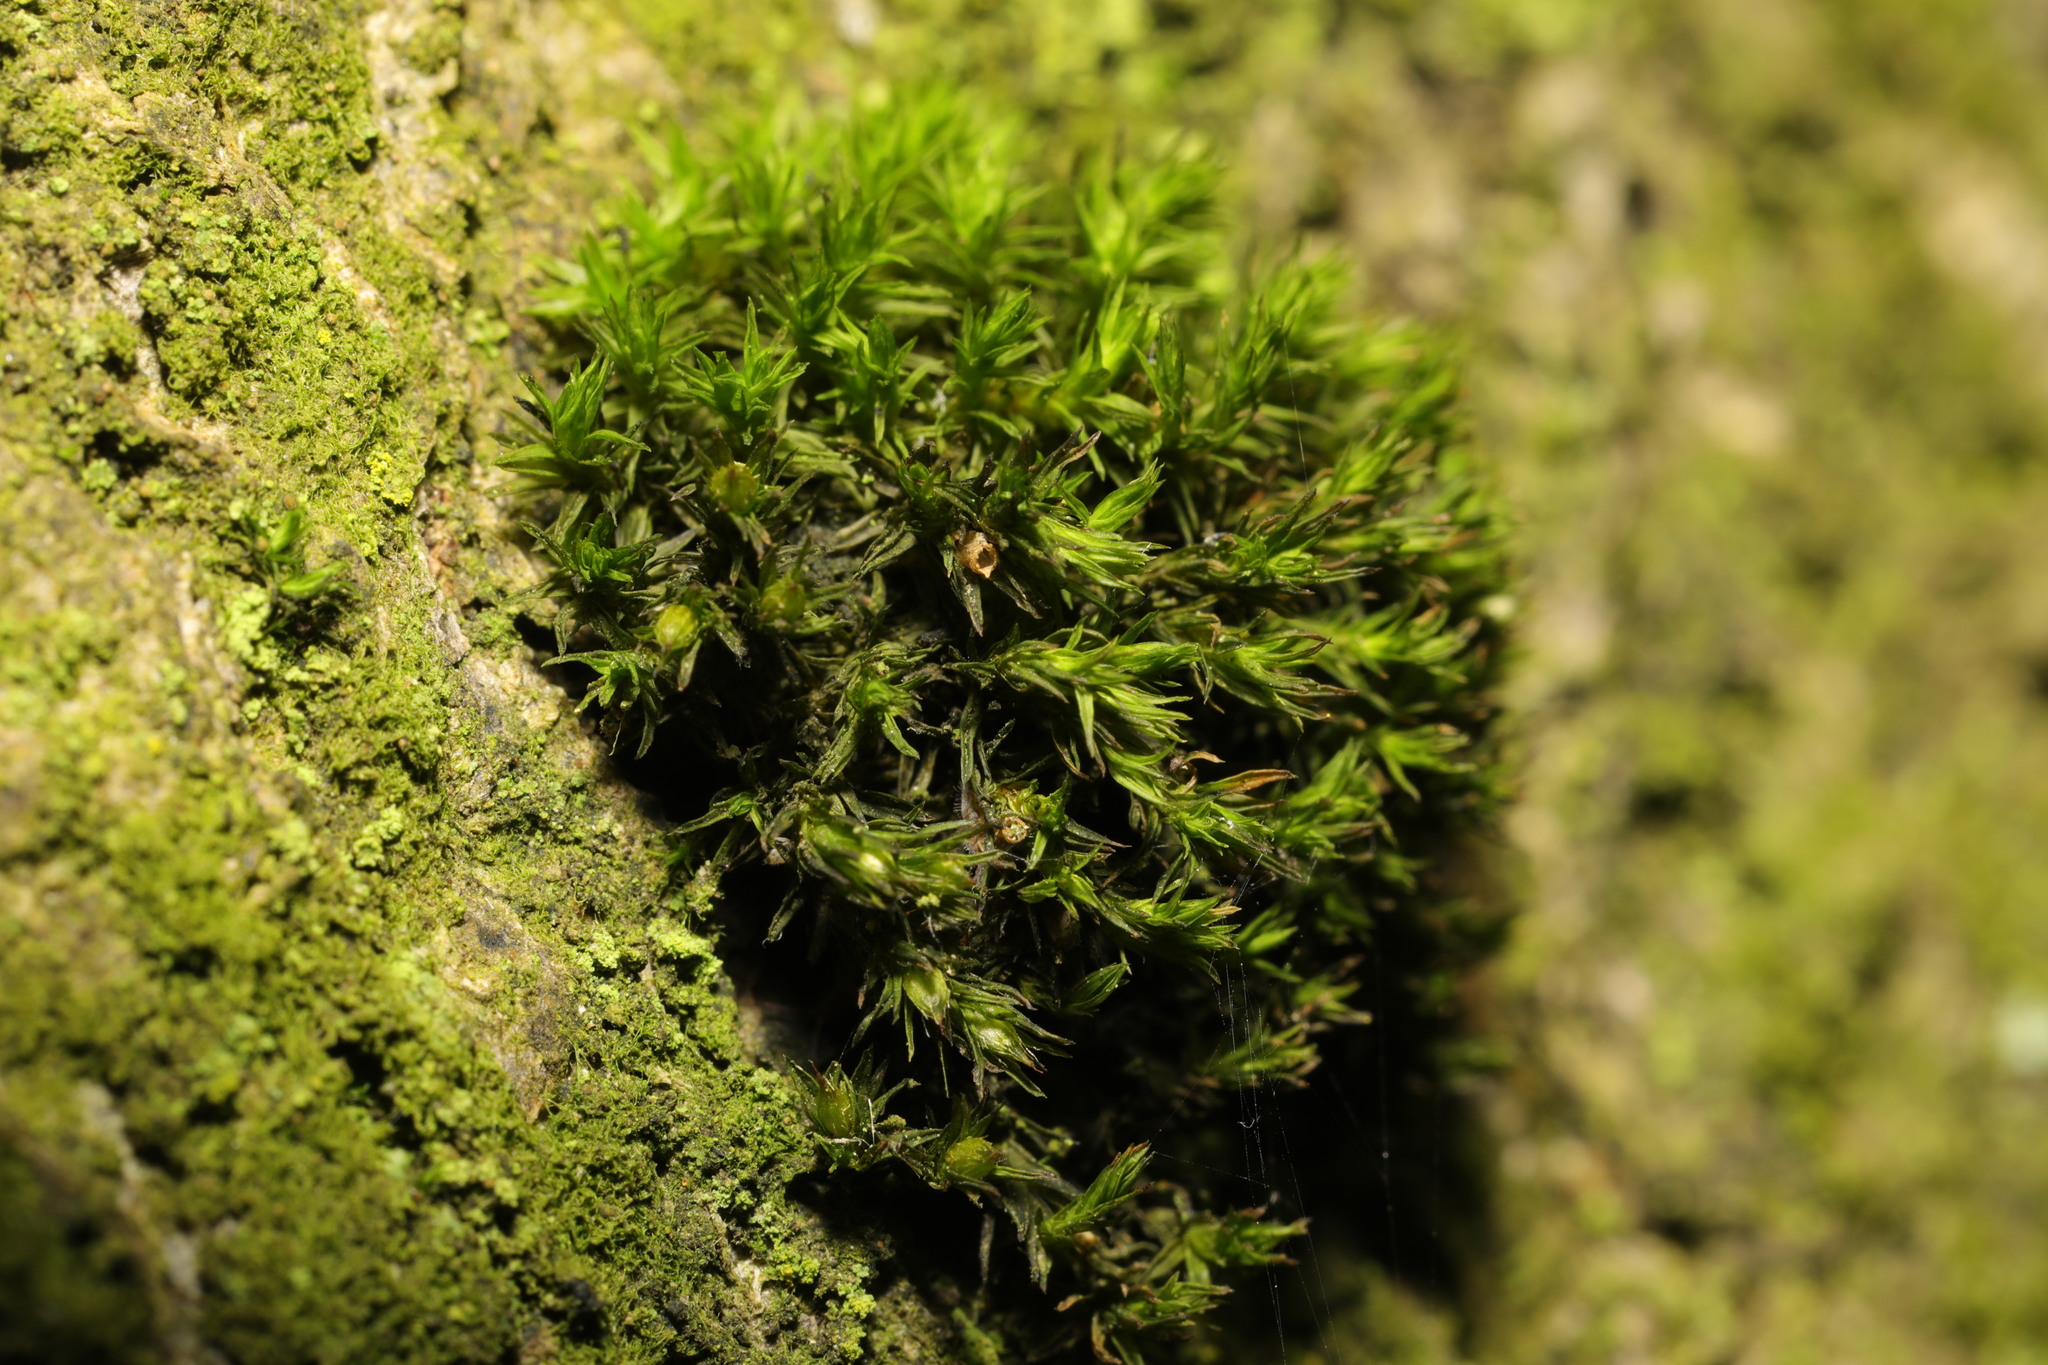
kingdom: Plantae
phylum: Bryophyta
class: Bryopsida
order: Orthotrichales
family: Orthotrichaceae
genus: Lewinskya
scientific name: Lewinskya affinis
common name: Wood bristle-moss
